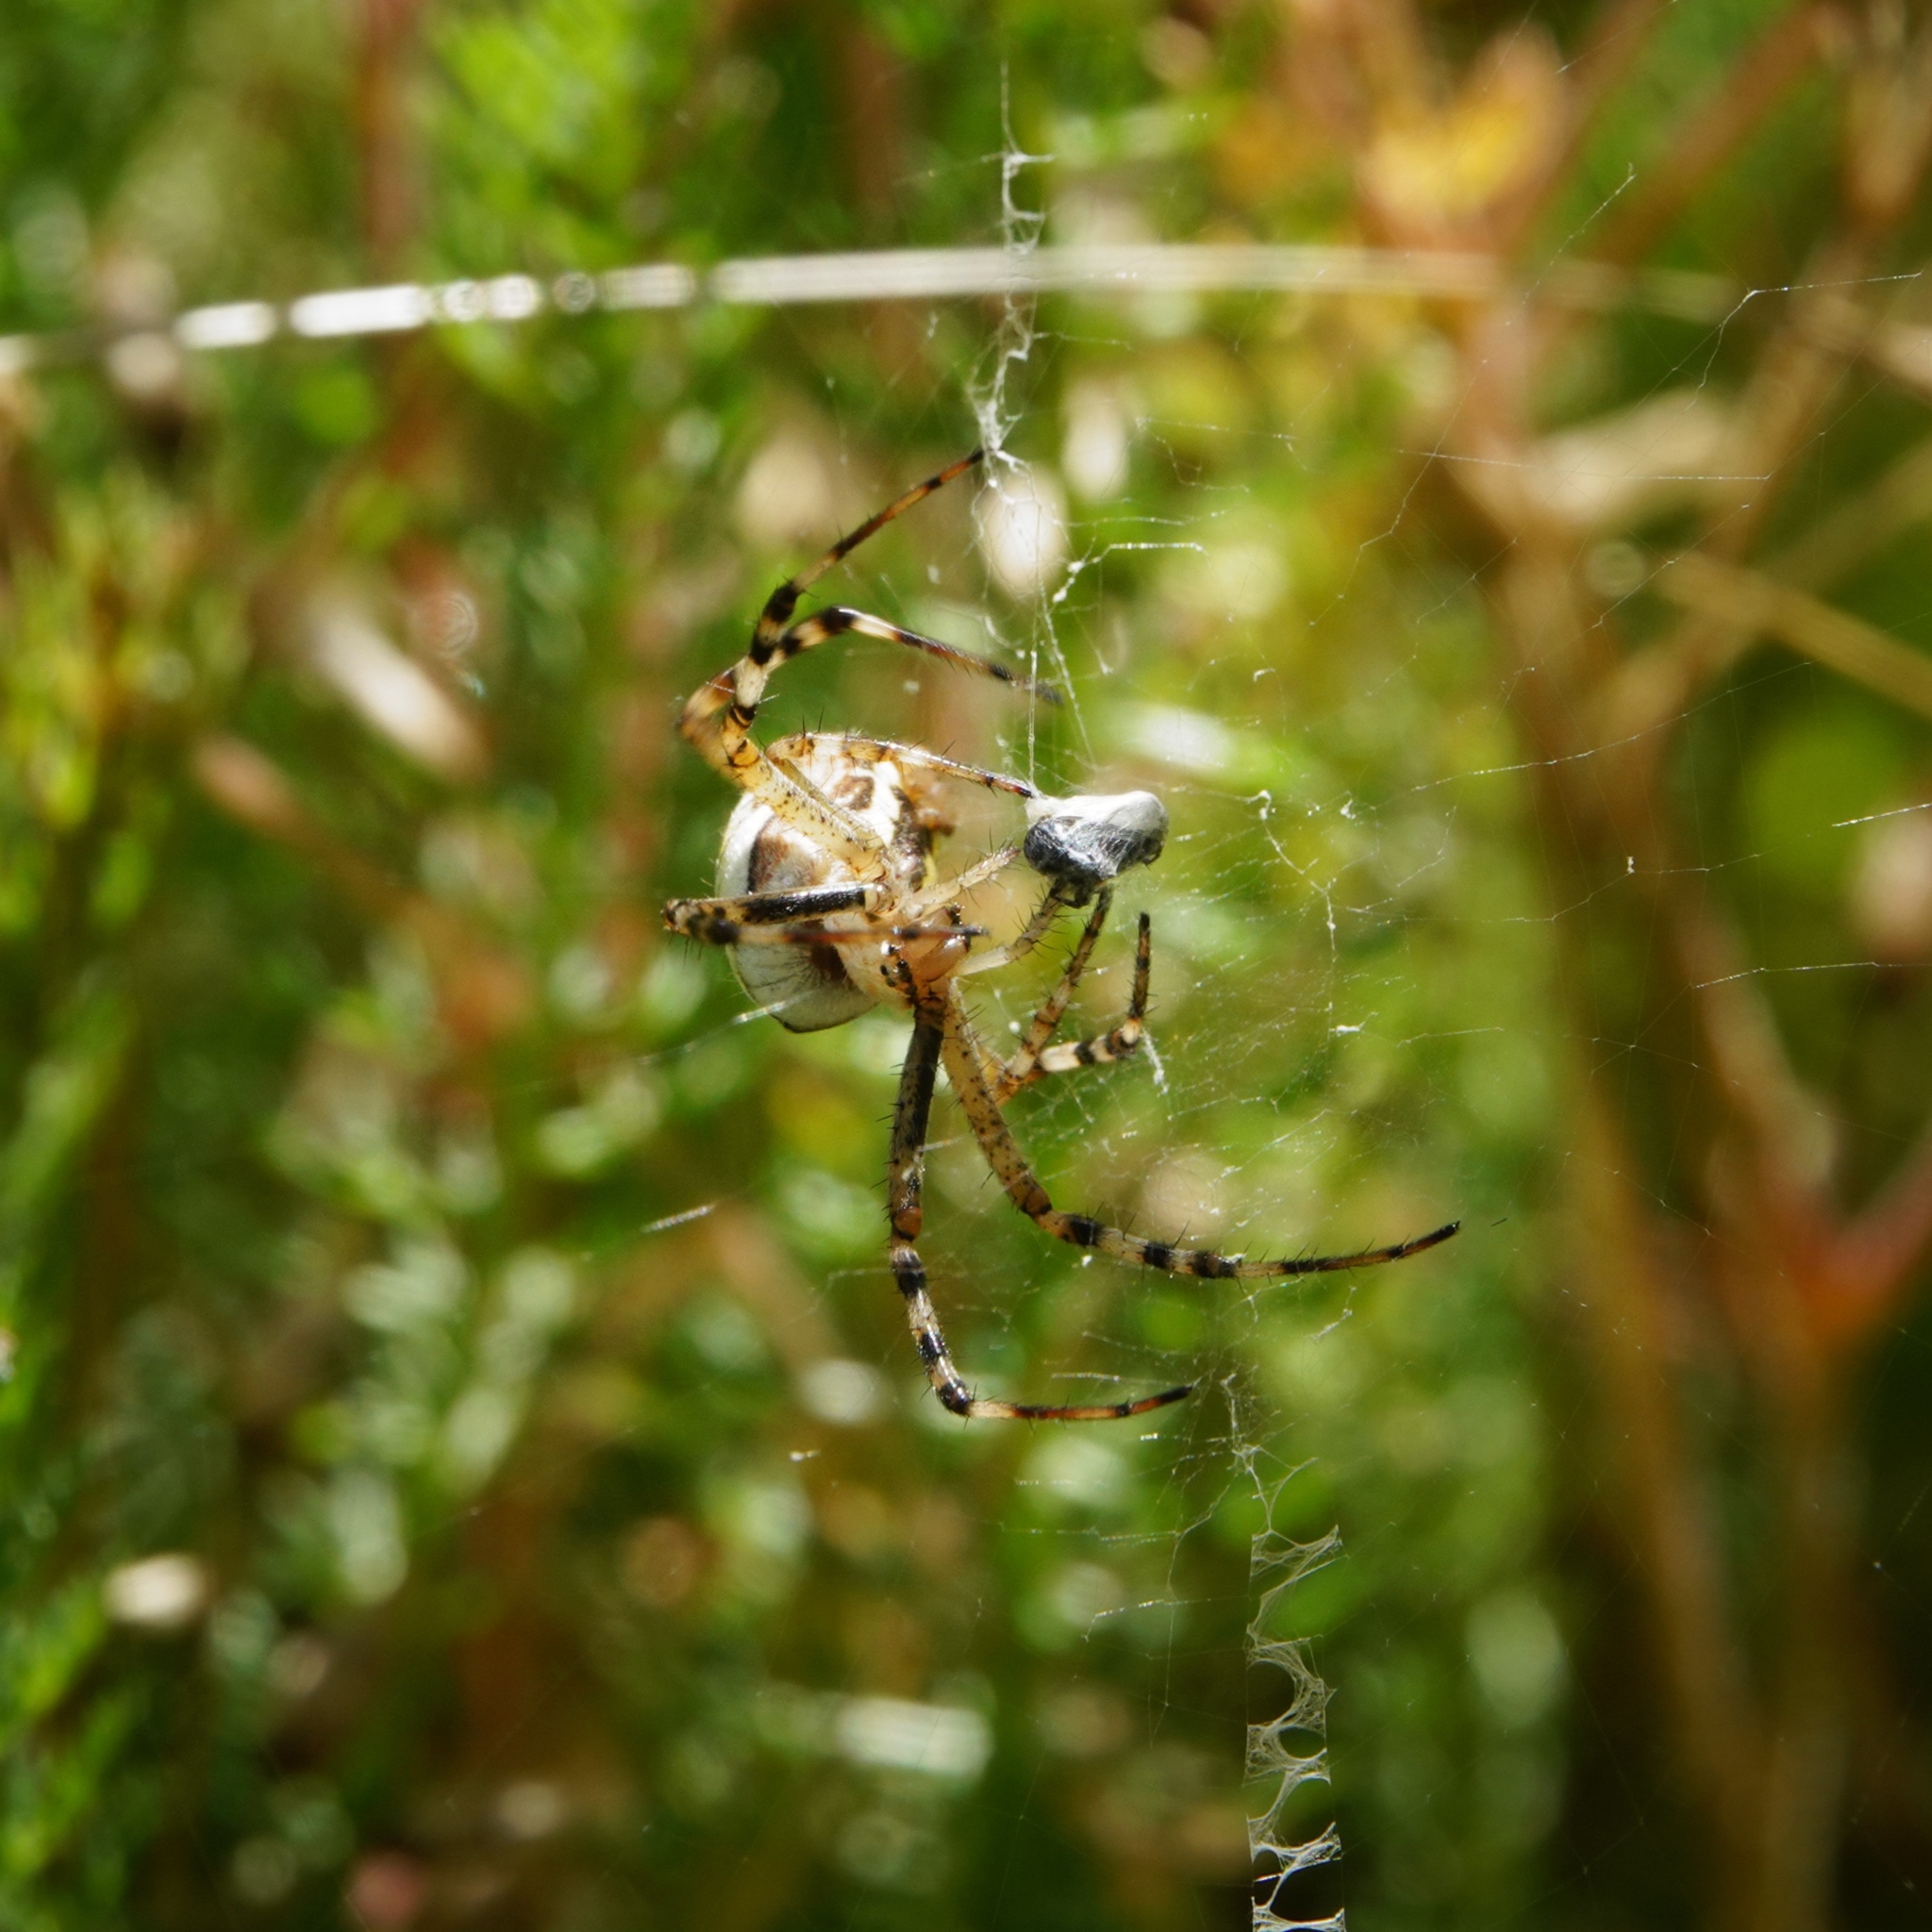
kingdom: Animalia
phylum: Arthropoda
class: Arachnida
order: Araneae
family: Araneidae
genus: Argiope
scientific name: Argiope bruennichi
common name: Wasp spider
